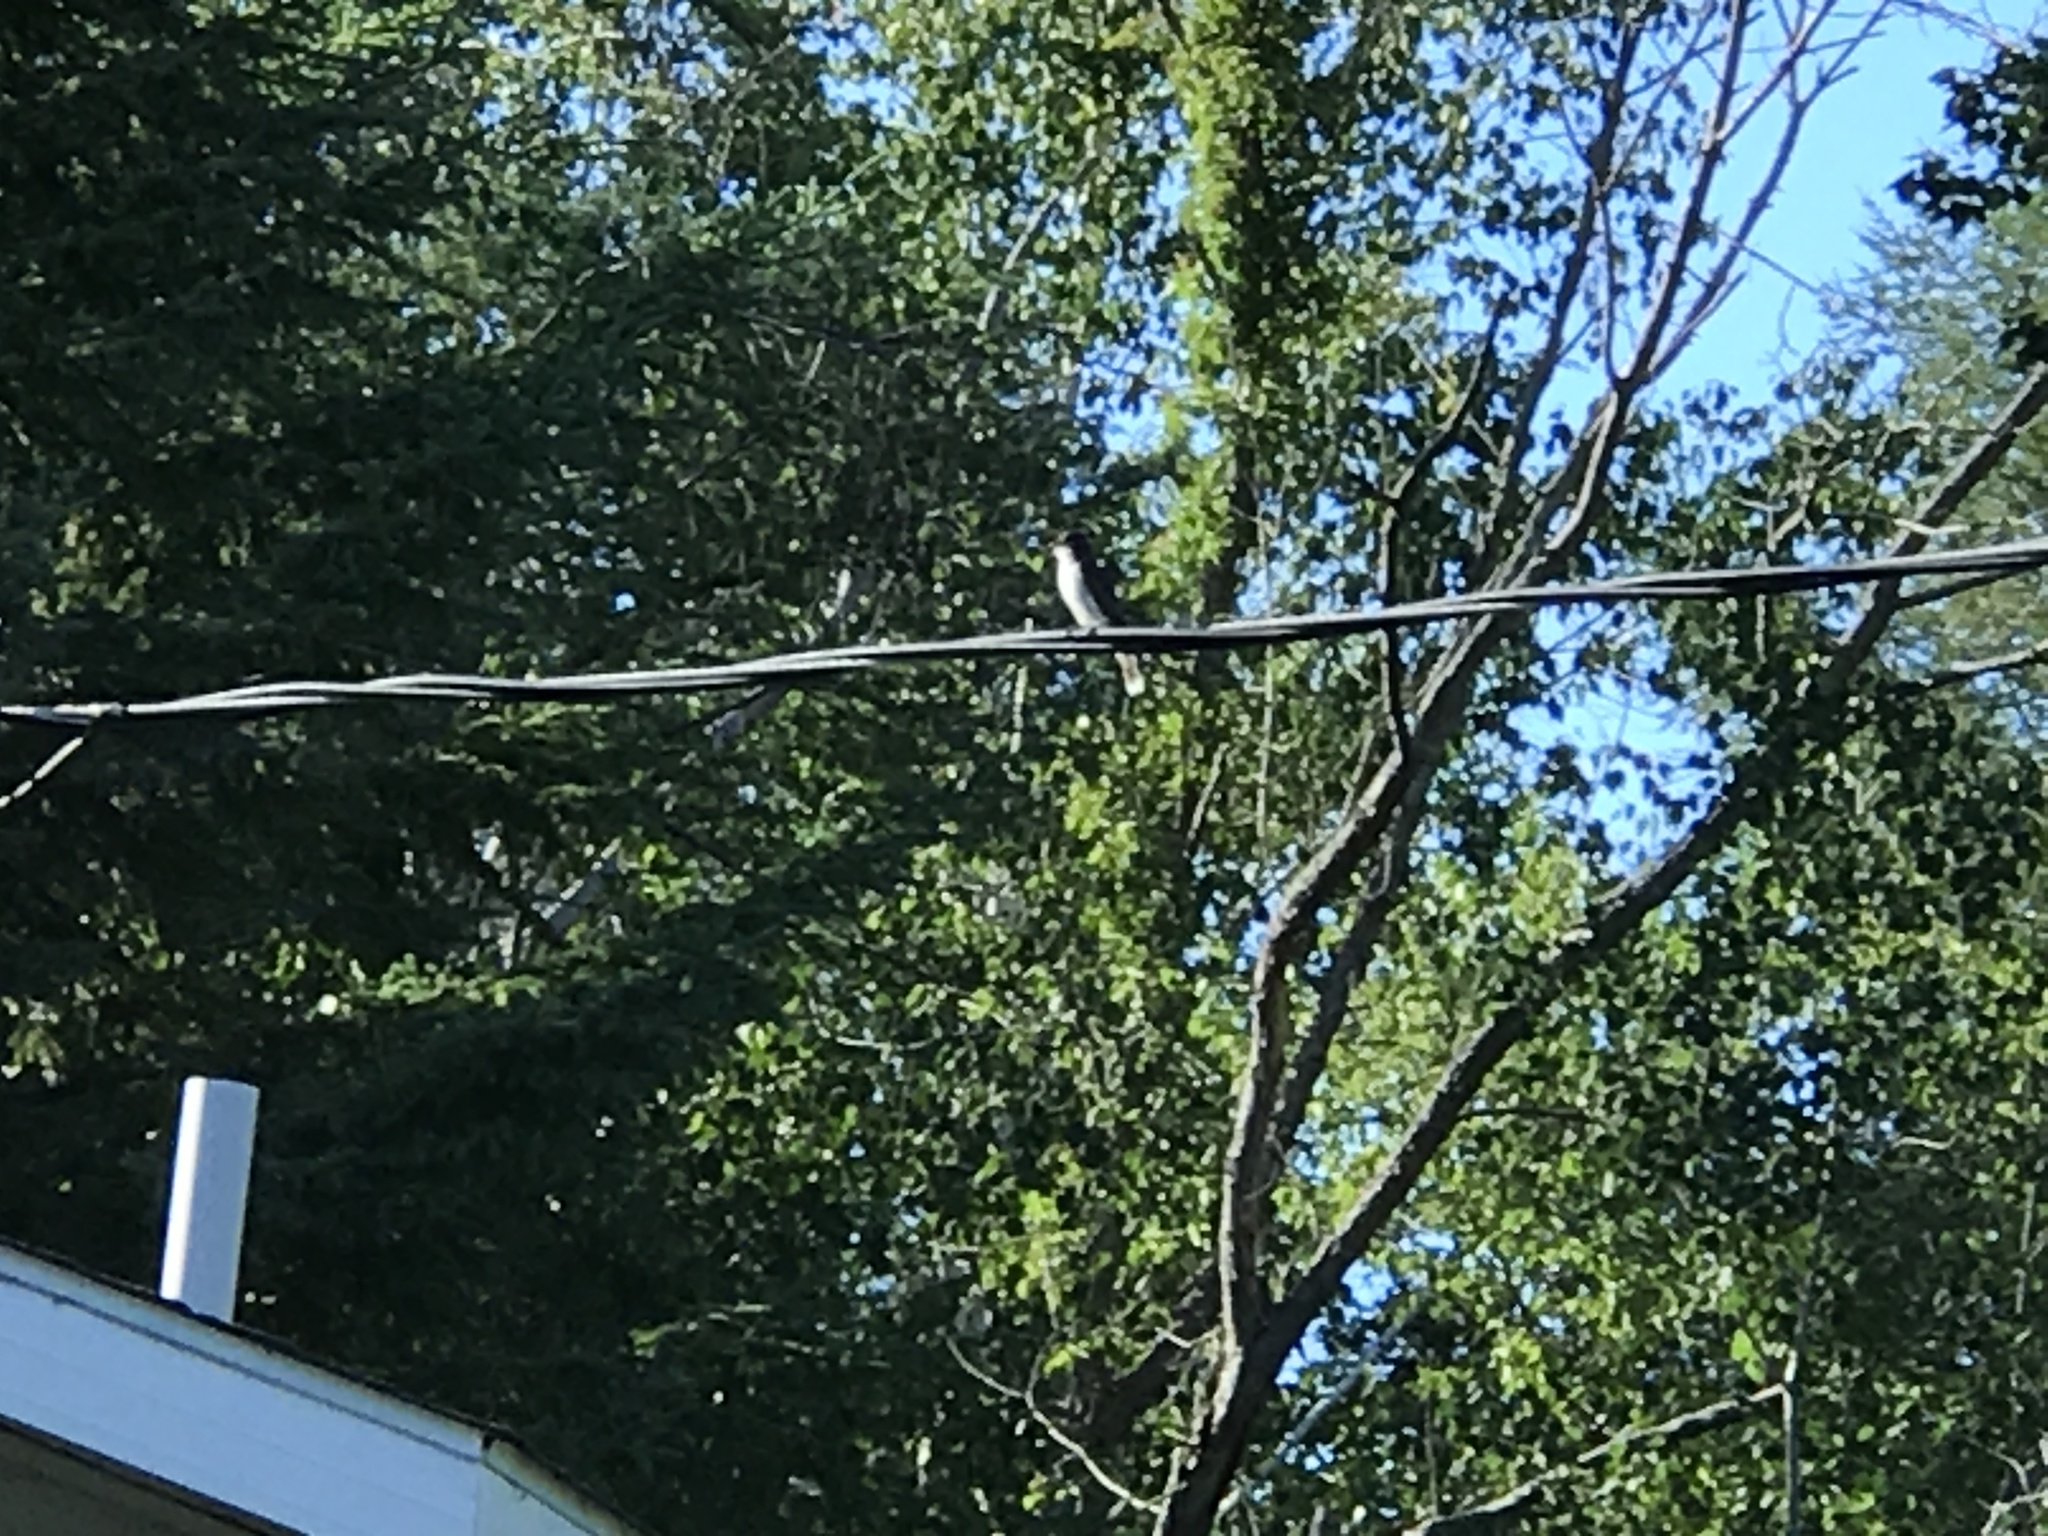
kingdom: Animalia
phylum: Chordata
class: Aves
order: Passeriformes
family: Tyrannidae
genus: Tyrannus
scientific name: Tyrannus tyrannus
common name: Eastern kingbird
